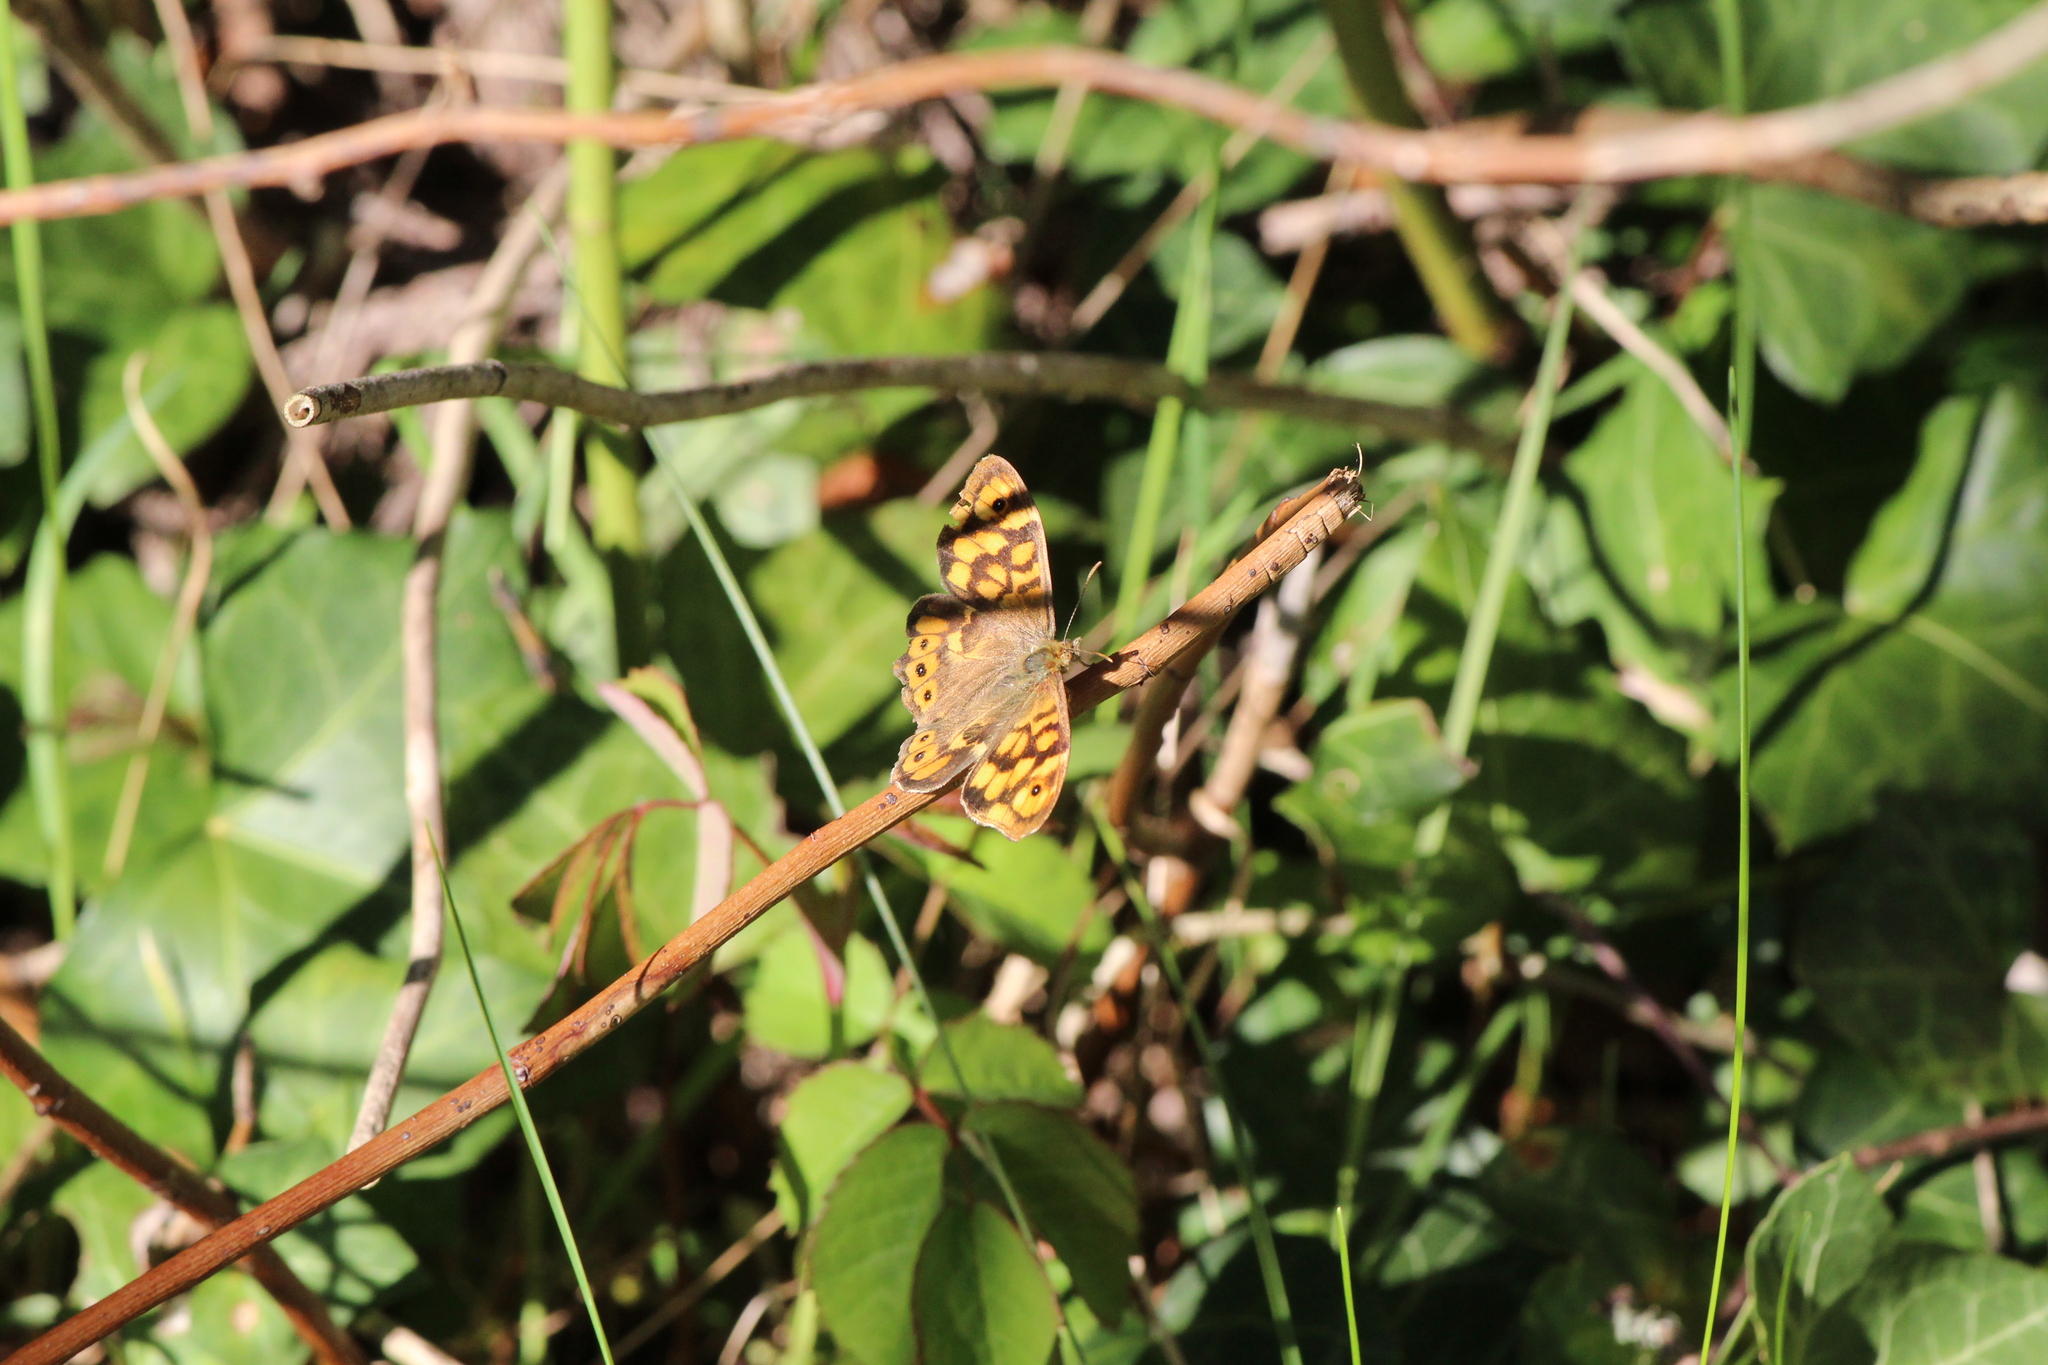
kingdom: Animalia
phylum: Arthropoda
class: Insecta
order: Lepidoptera
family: Nymphalidae
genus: Pararge
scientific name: Pararge aegeria
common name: Speckled wood
